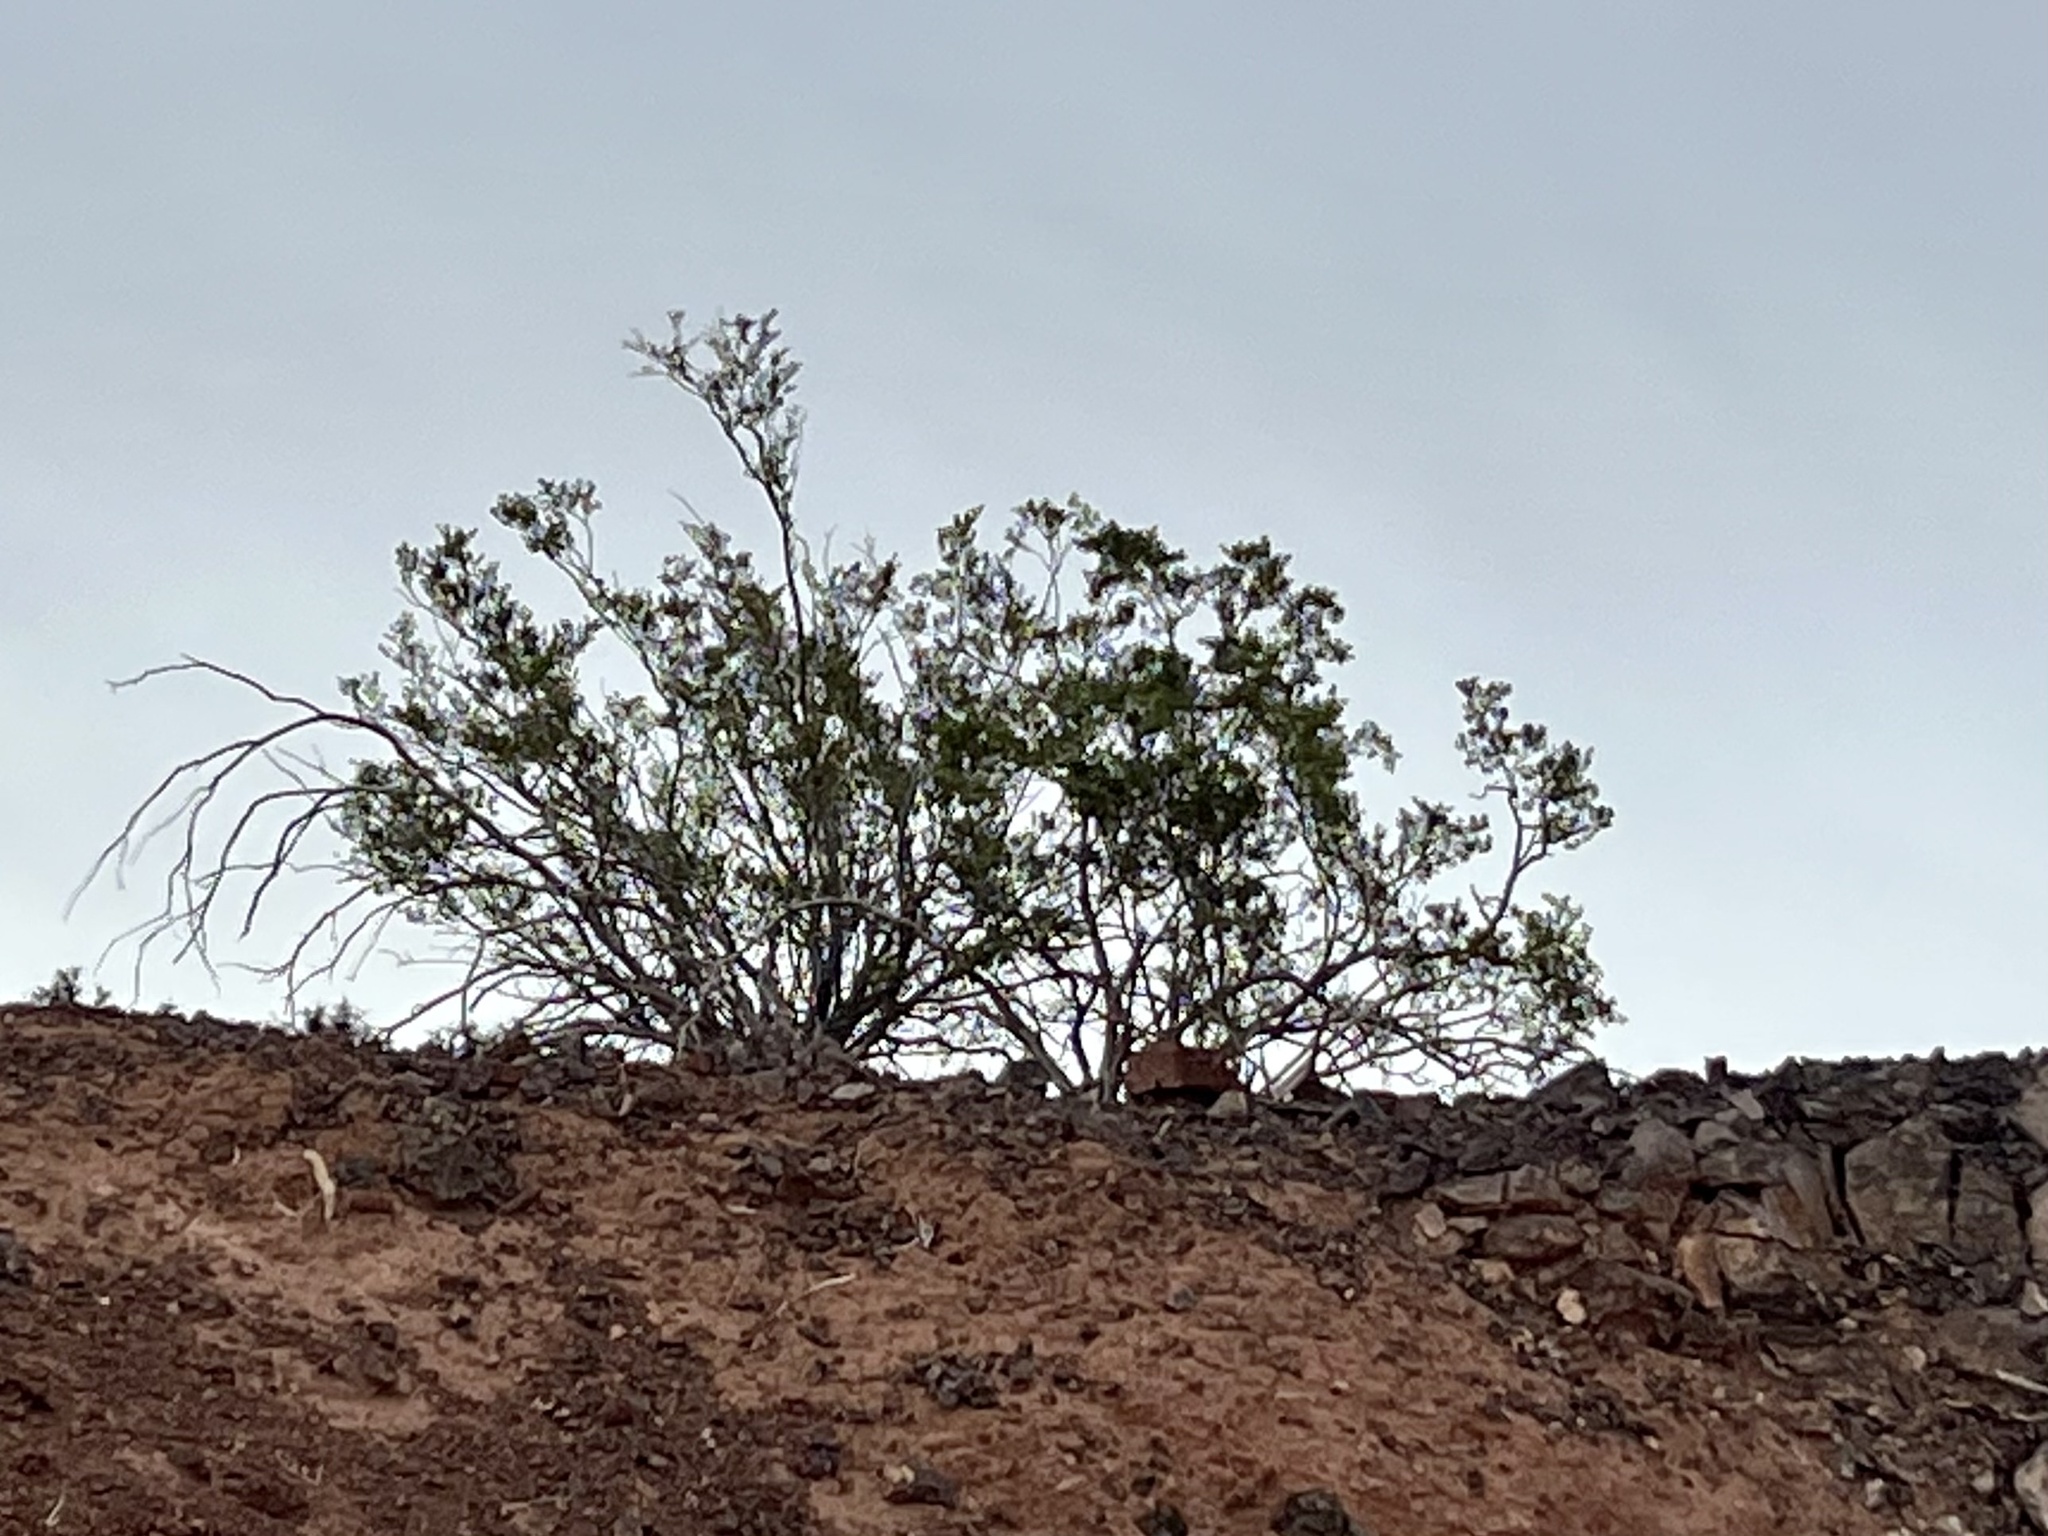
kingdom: Plantae
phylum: Tracheophyta
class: Magnoliopsida
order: Zygophyllales
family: Zygophyllaceae
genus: Larrea
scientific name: Larrea tridentata
